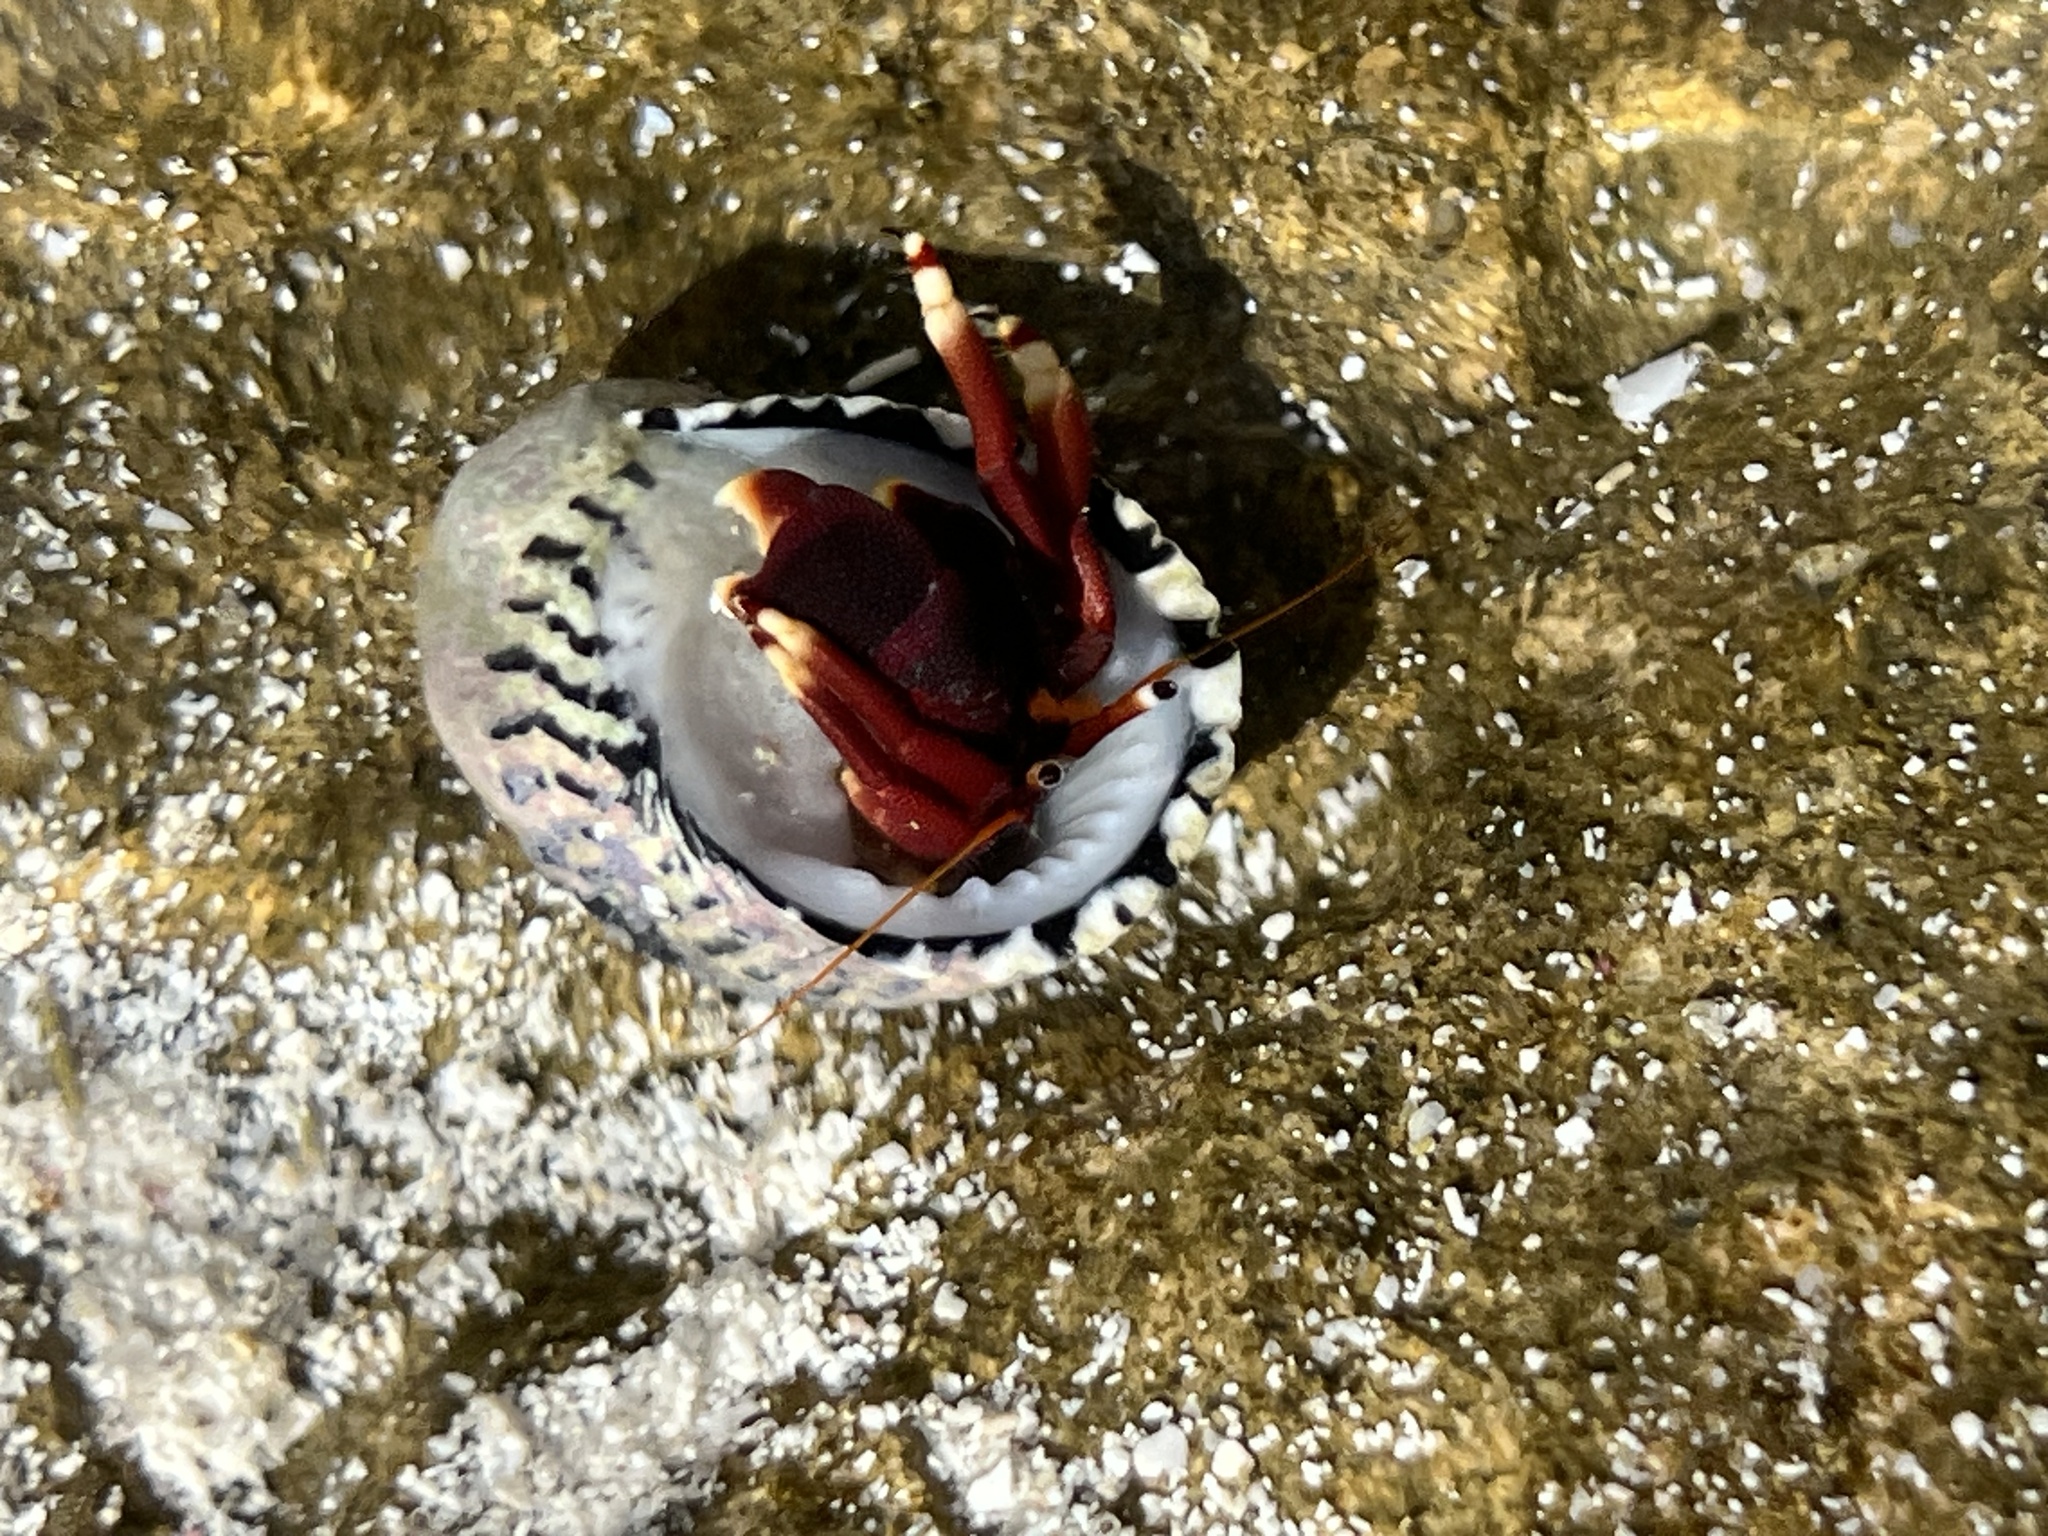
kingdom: Animalia
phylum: Arthropoda
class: Malacostraca
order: Decapoda
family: Diogenidae
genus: Calcinus
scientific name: Calcinus tibicen
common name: Orangeclaw hermit
